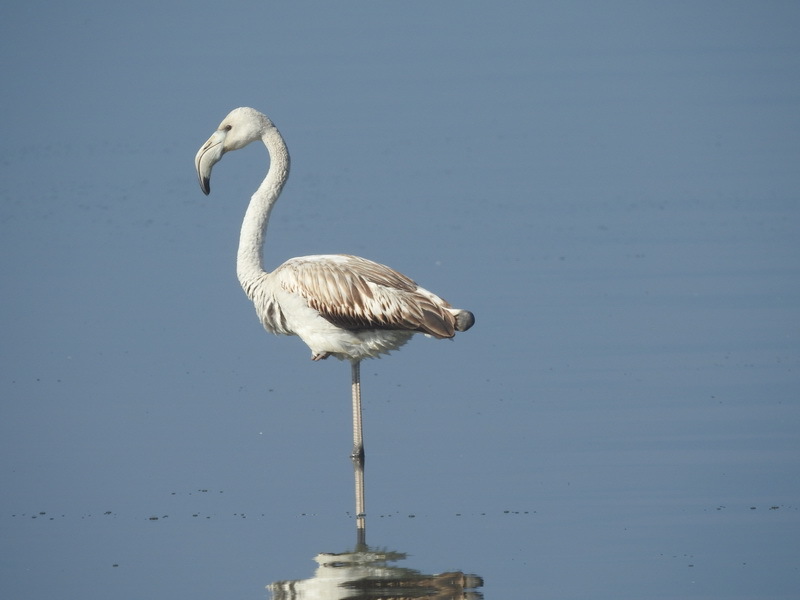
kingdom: Animalia
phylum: Chordata
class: Aves
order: Phoenicopteriformes
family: Phoenicopteridae
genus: Phoenicopterus
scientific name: Phoenicopterus roseus
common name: Greater flamingo
